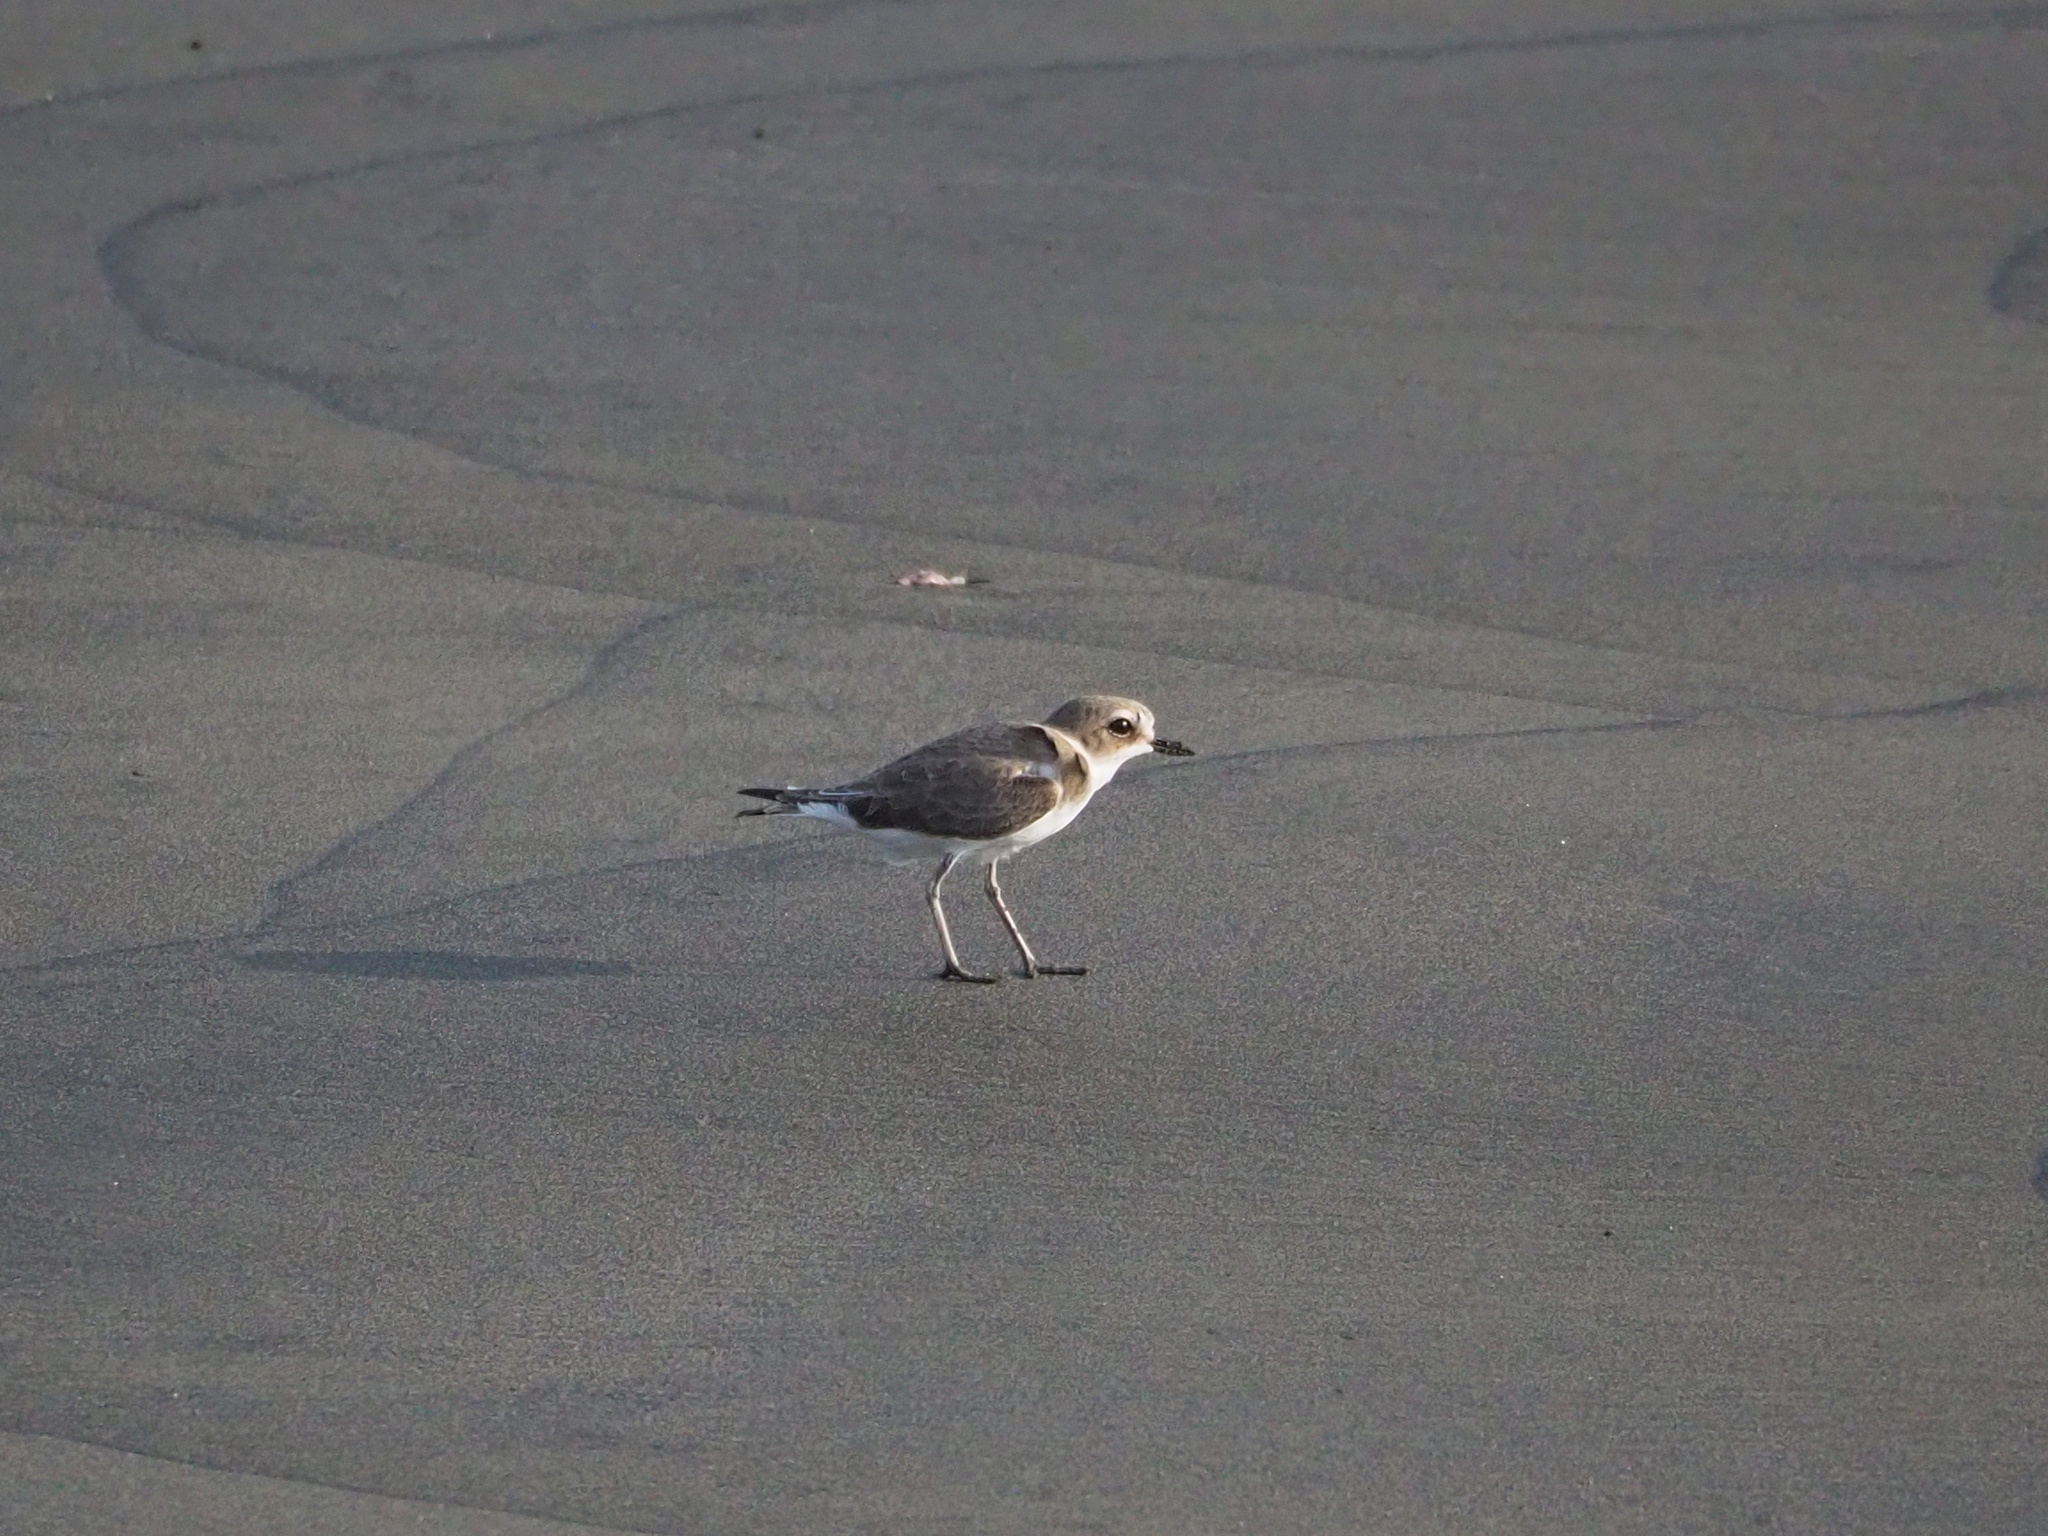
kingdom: Animalia
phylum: Chordata
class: Aves
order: Charadriiformes
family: Charadriidae
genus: Charadrius
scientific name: Charadrius alexandrinus
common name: Kentish plover
